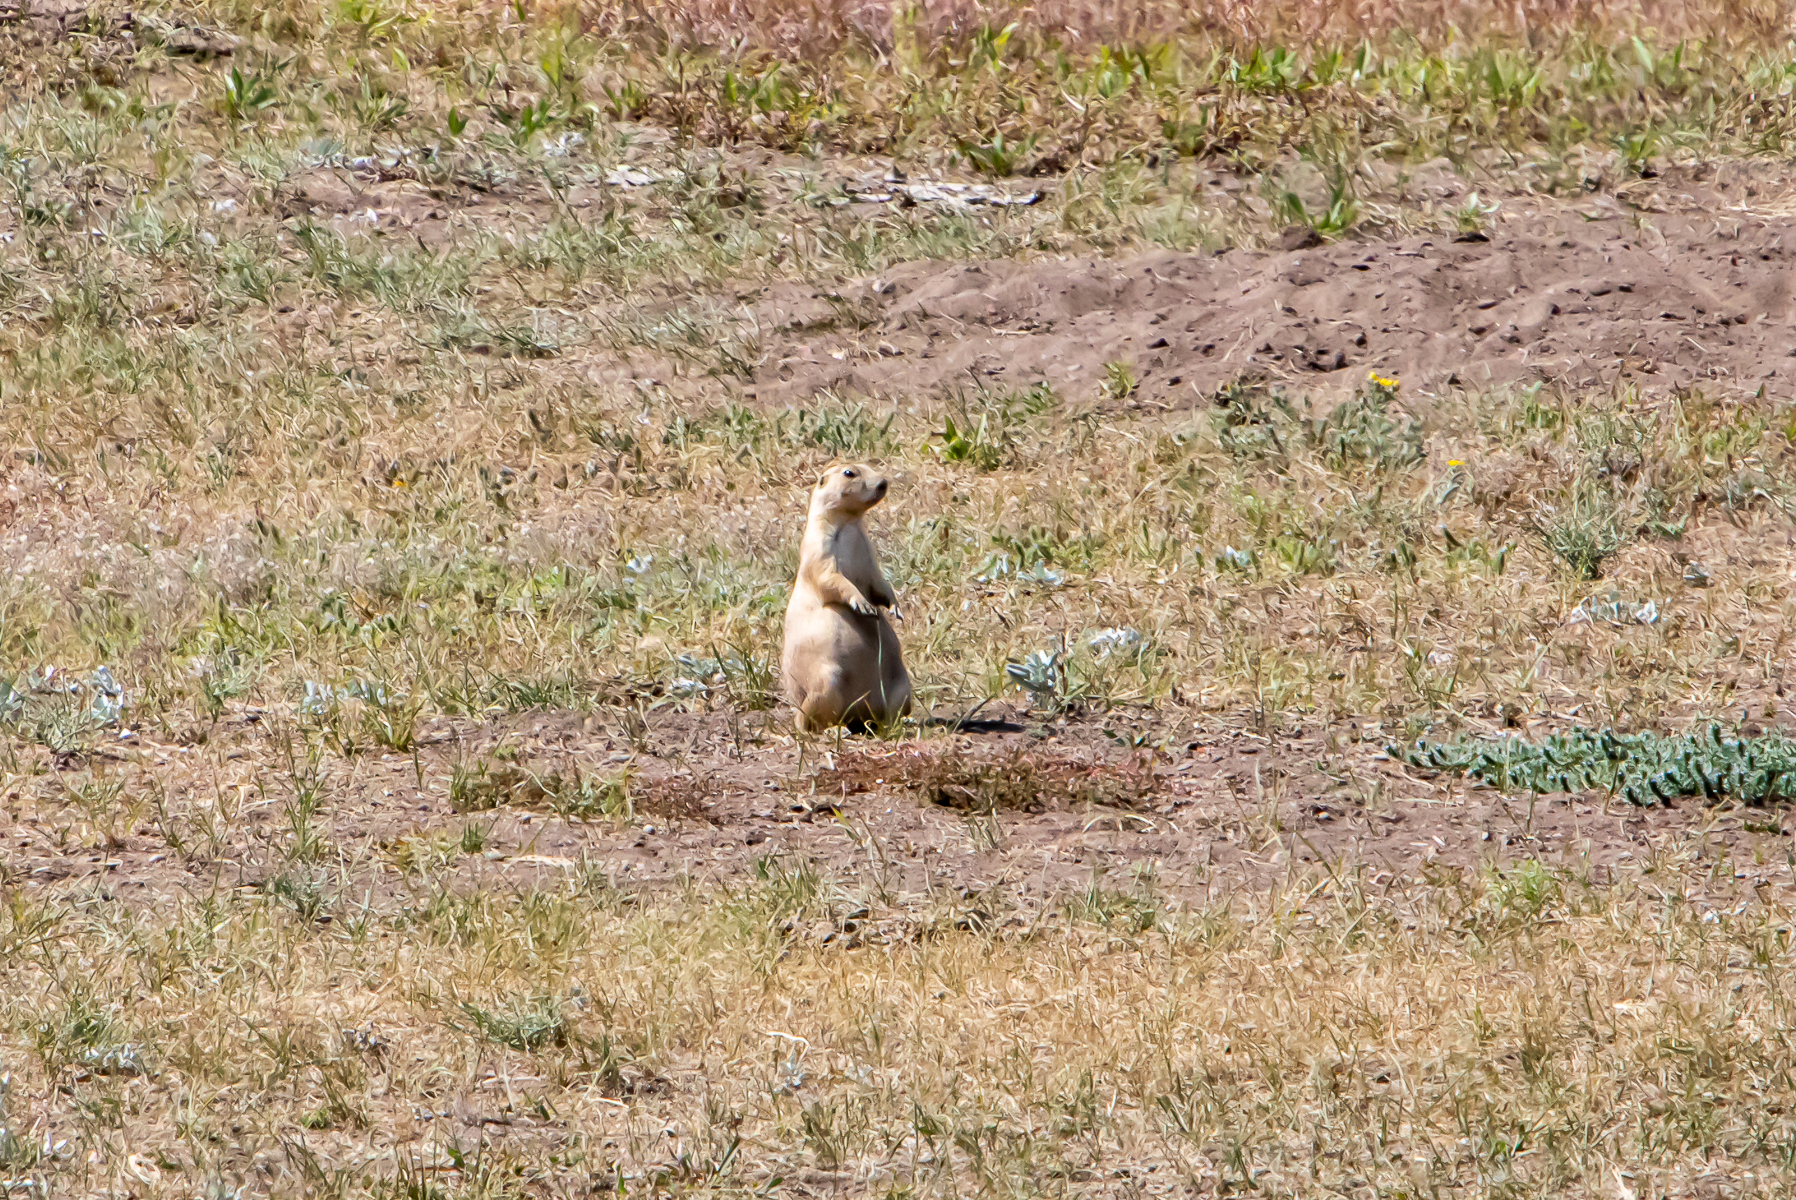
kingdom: Animalia
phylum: Chordata
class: Mammalia
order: Rodentia
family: Sciuridae
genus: Cynomys
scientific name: Cynomys ludovicianus
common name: Black-tailed prairie dog
